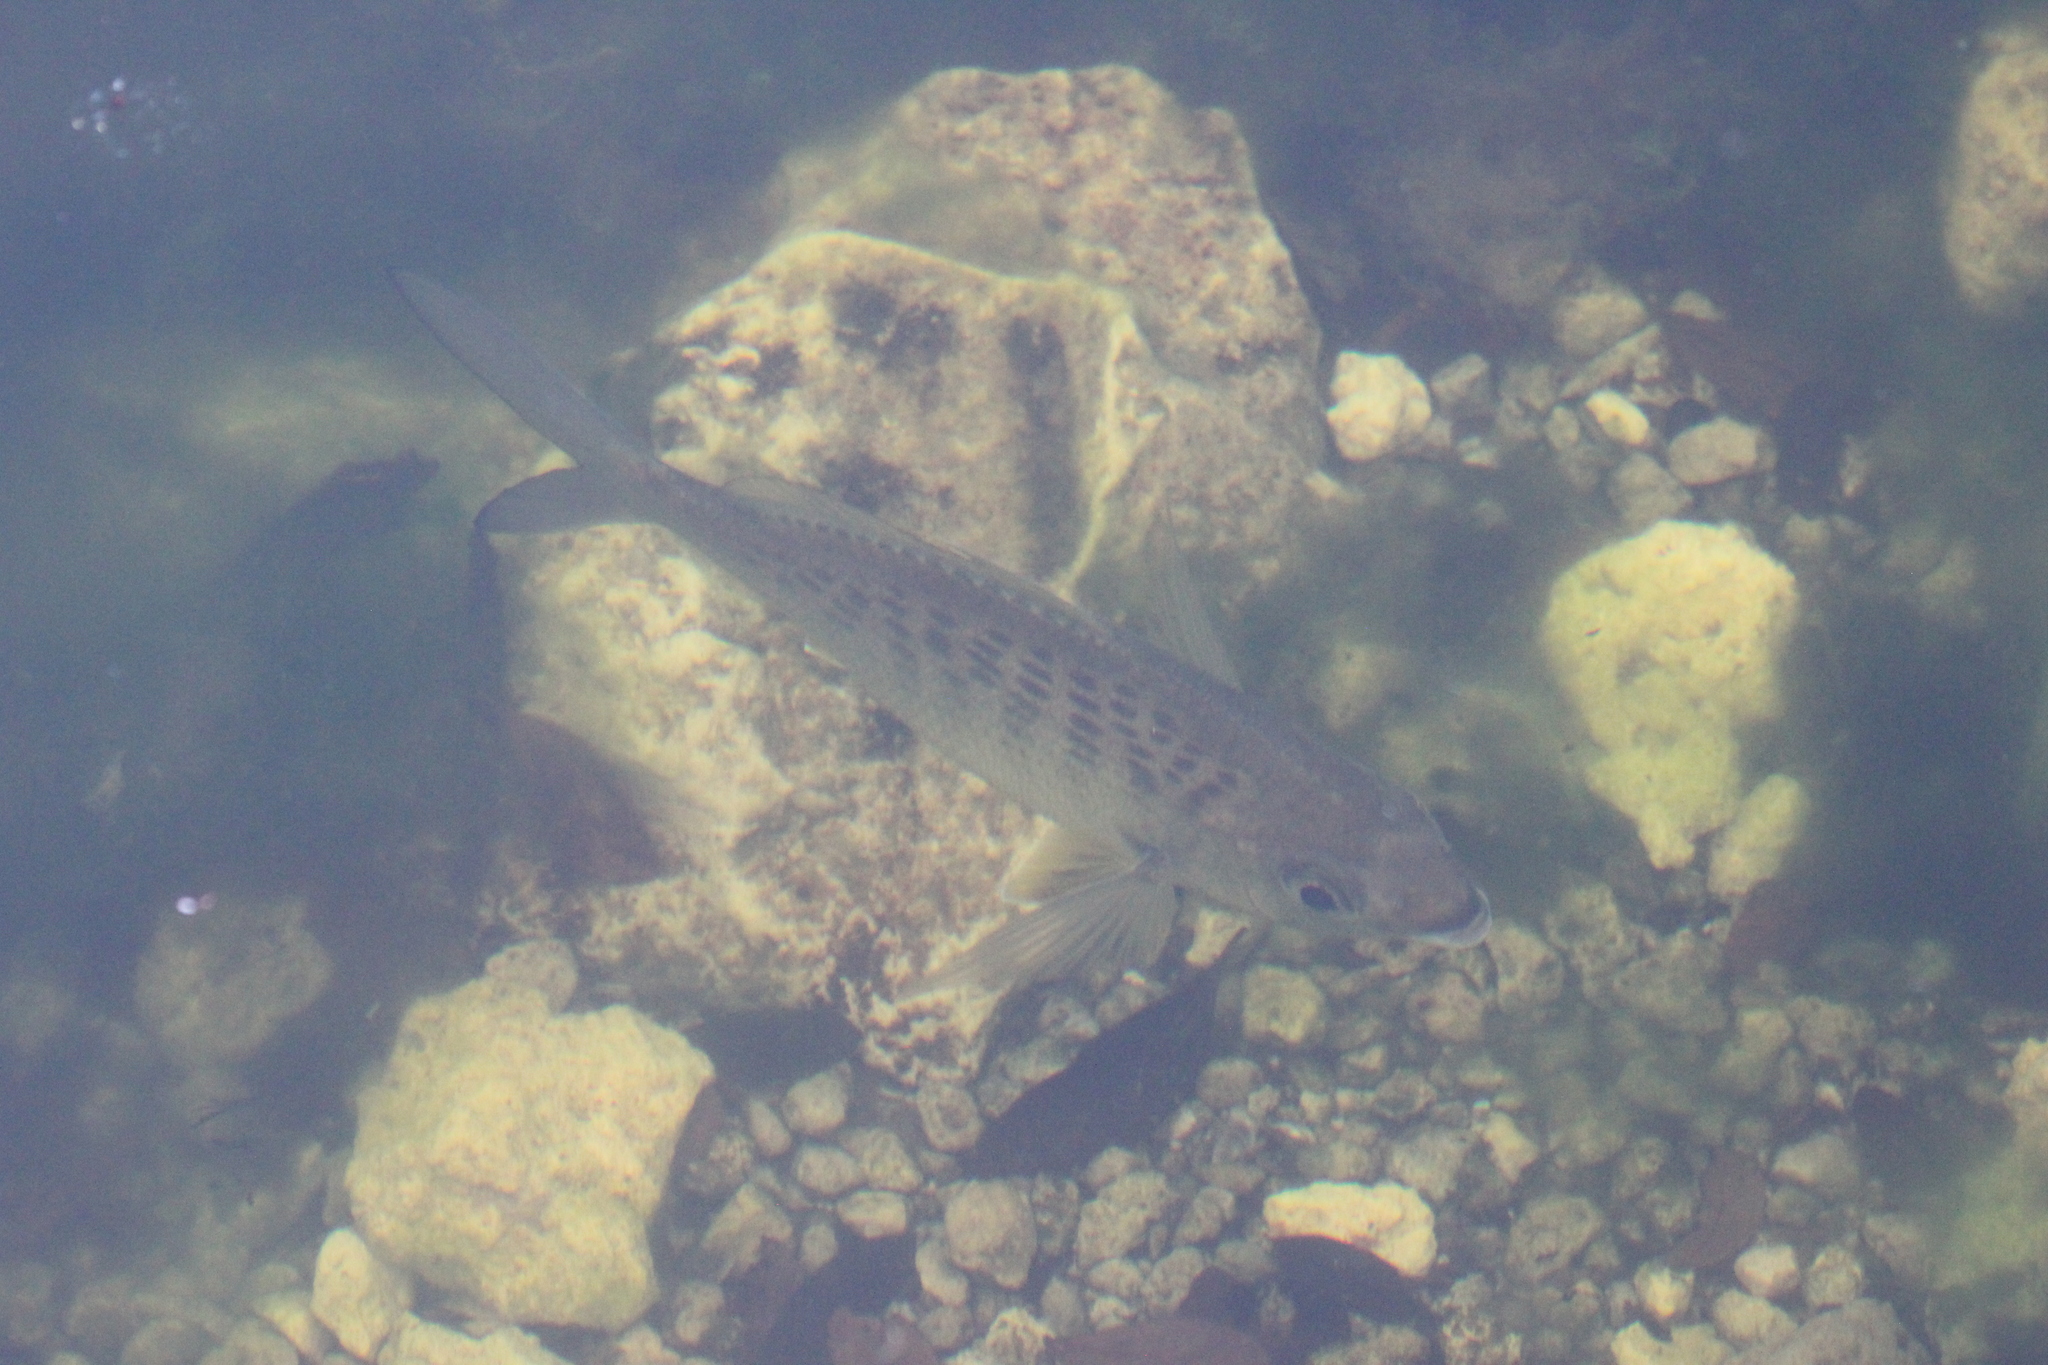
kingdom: Animalia
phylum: Chordata
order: Perciformes
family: Gerreidae
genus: Gerres
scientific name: Gerres cinereus
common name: Hedow
